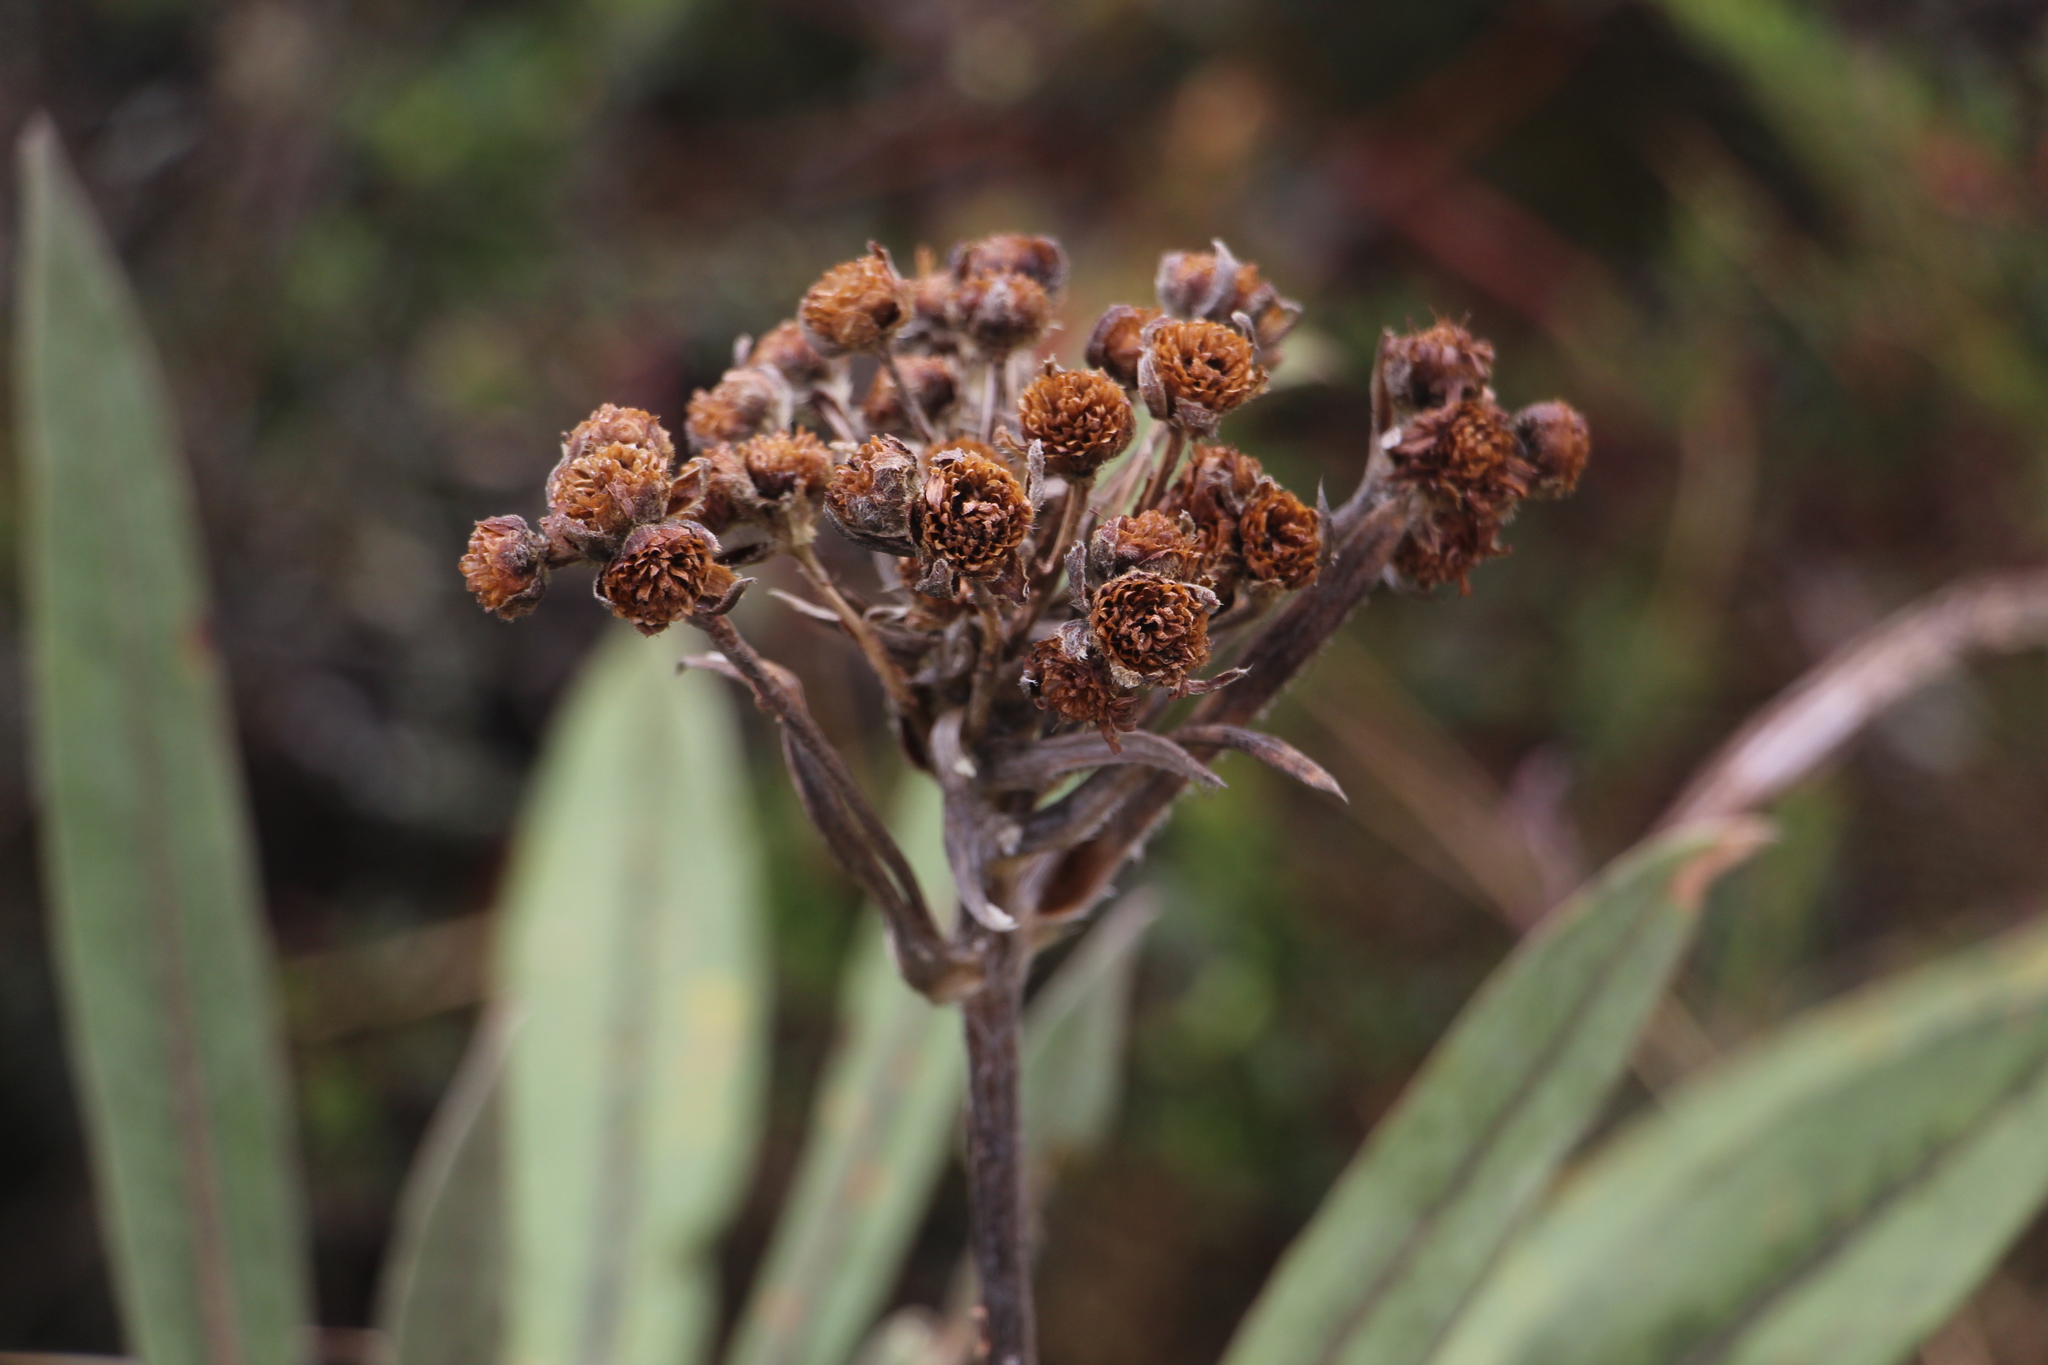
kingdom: Plantae
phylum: Tracheophyta
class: Magnoliopsida
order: Asterales
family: Asteraceae
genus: Espeletia
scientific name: Espeletia corymbosa
